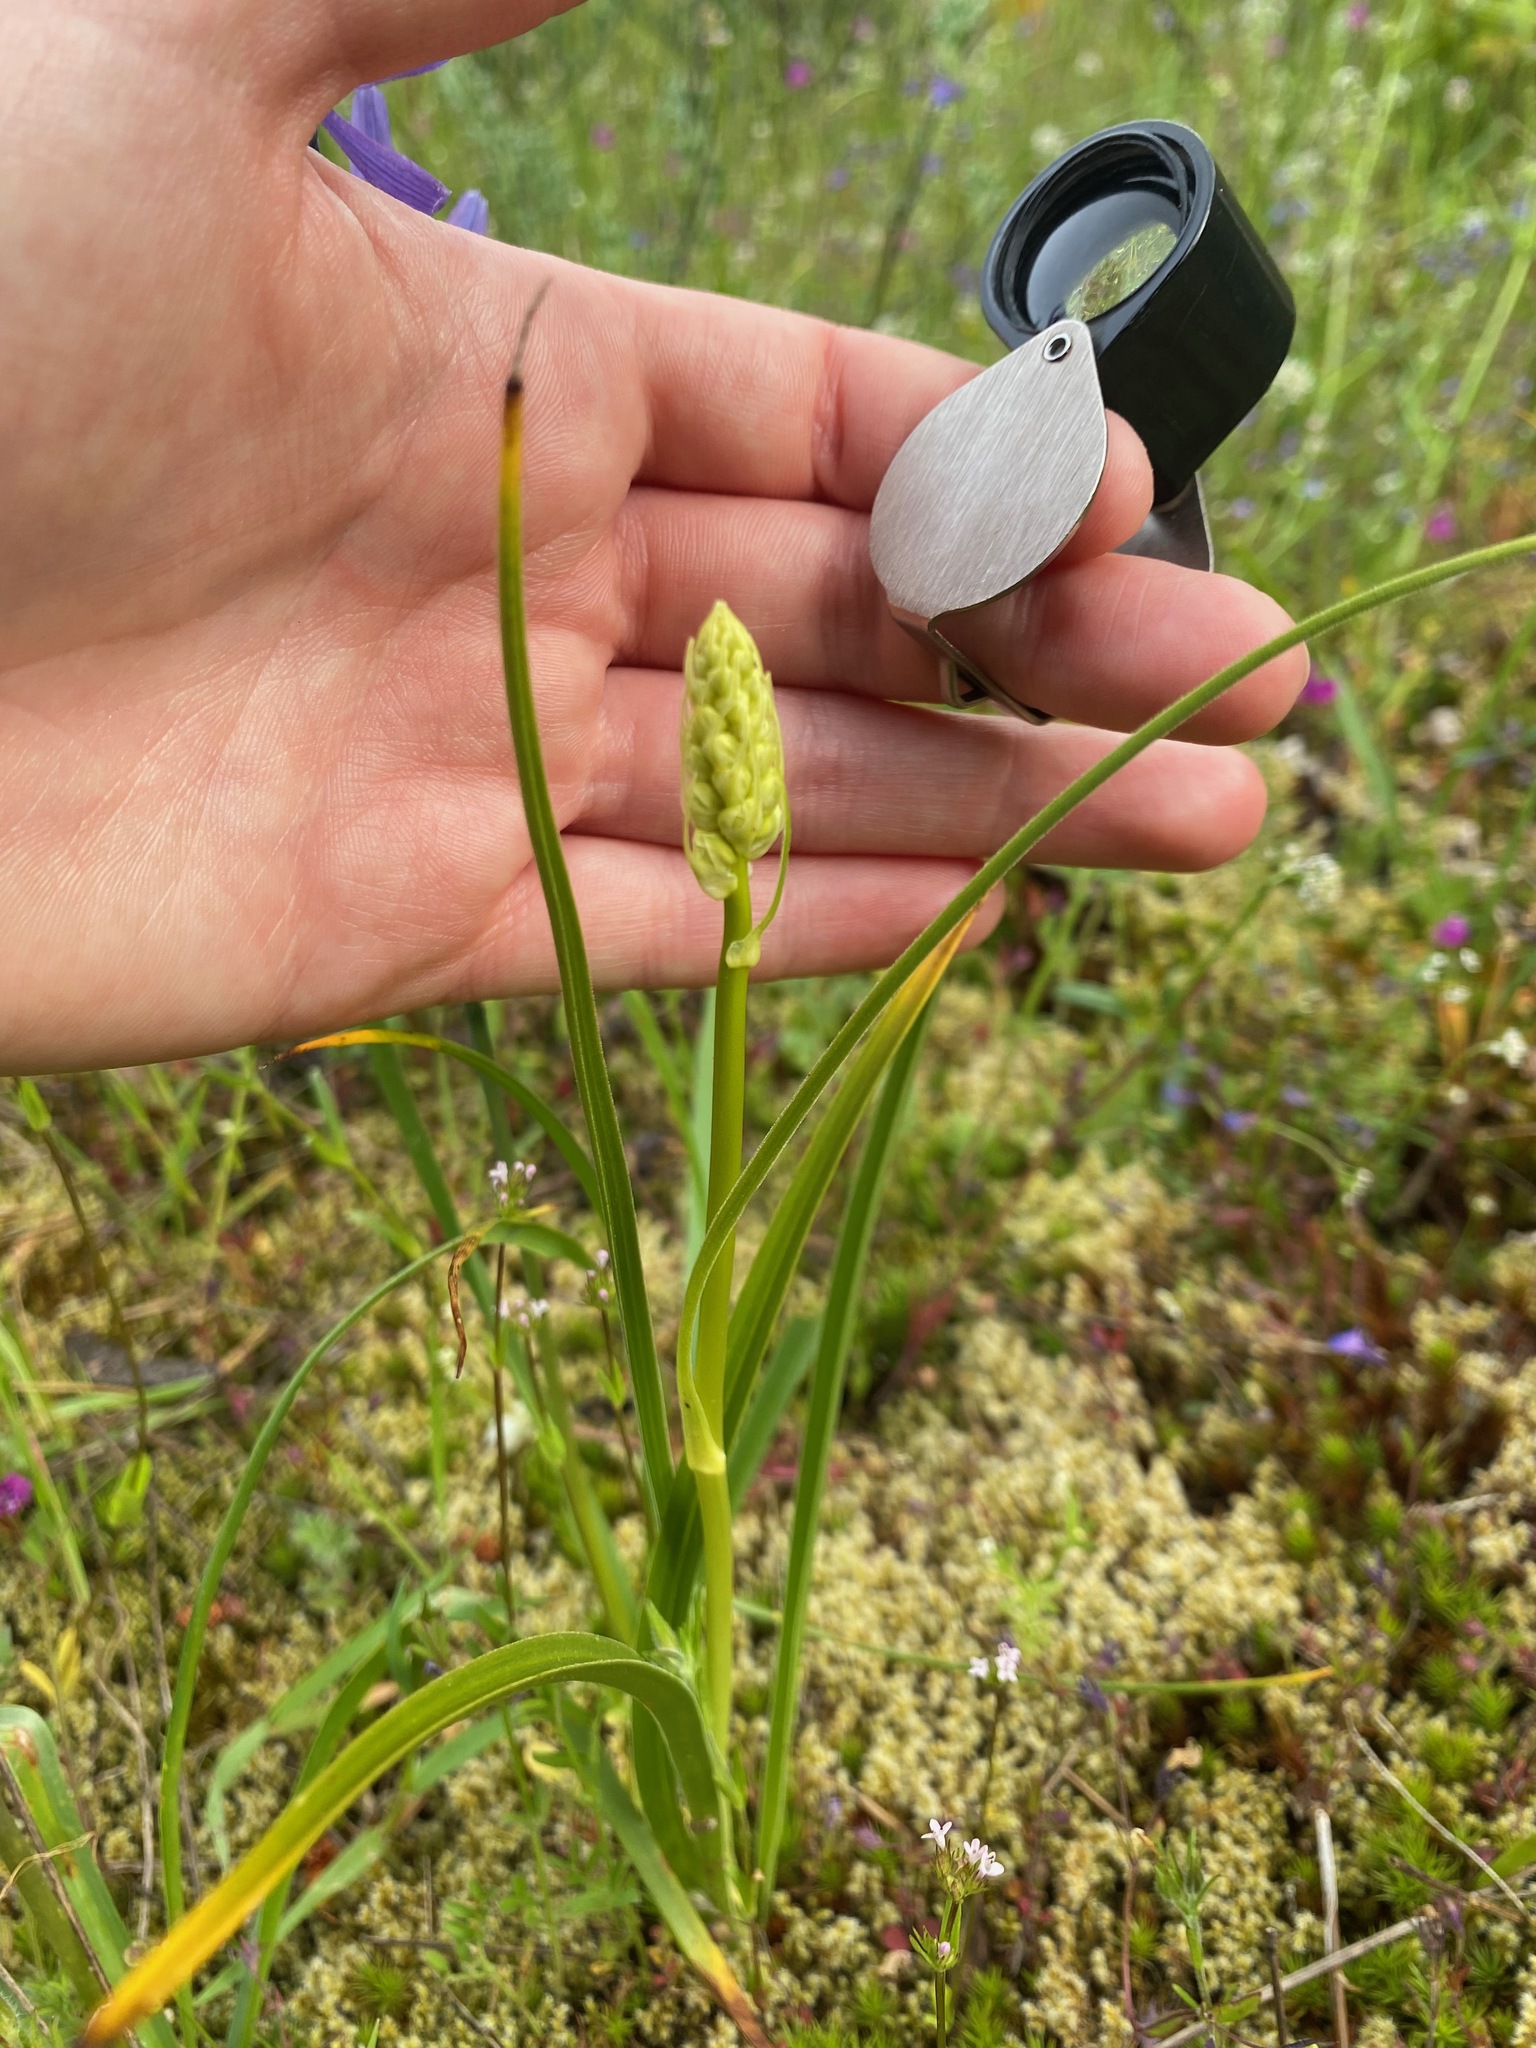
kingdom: Plantae
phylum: Tracheophyta
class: Liliopsida
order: Liliales
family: Melanthiaceae
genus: Toxicoscordion
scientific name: Toxicoscordion venenosum
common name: Meadow death camas
